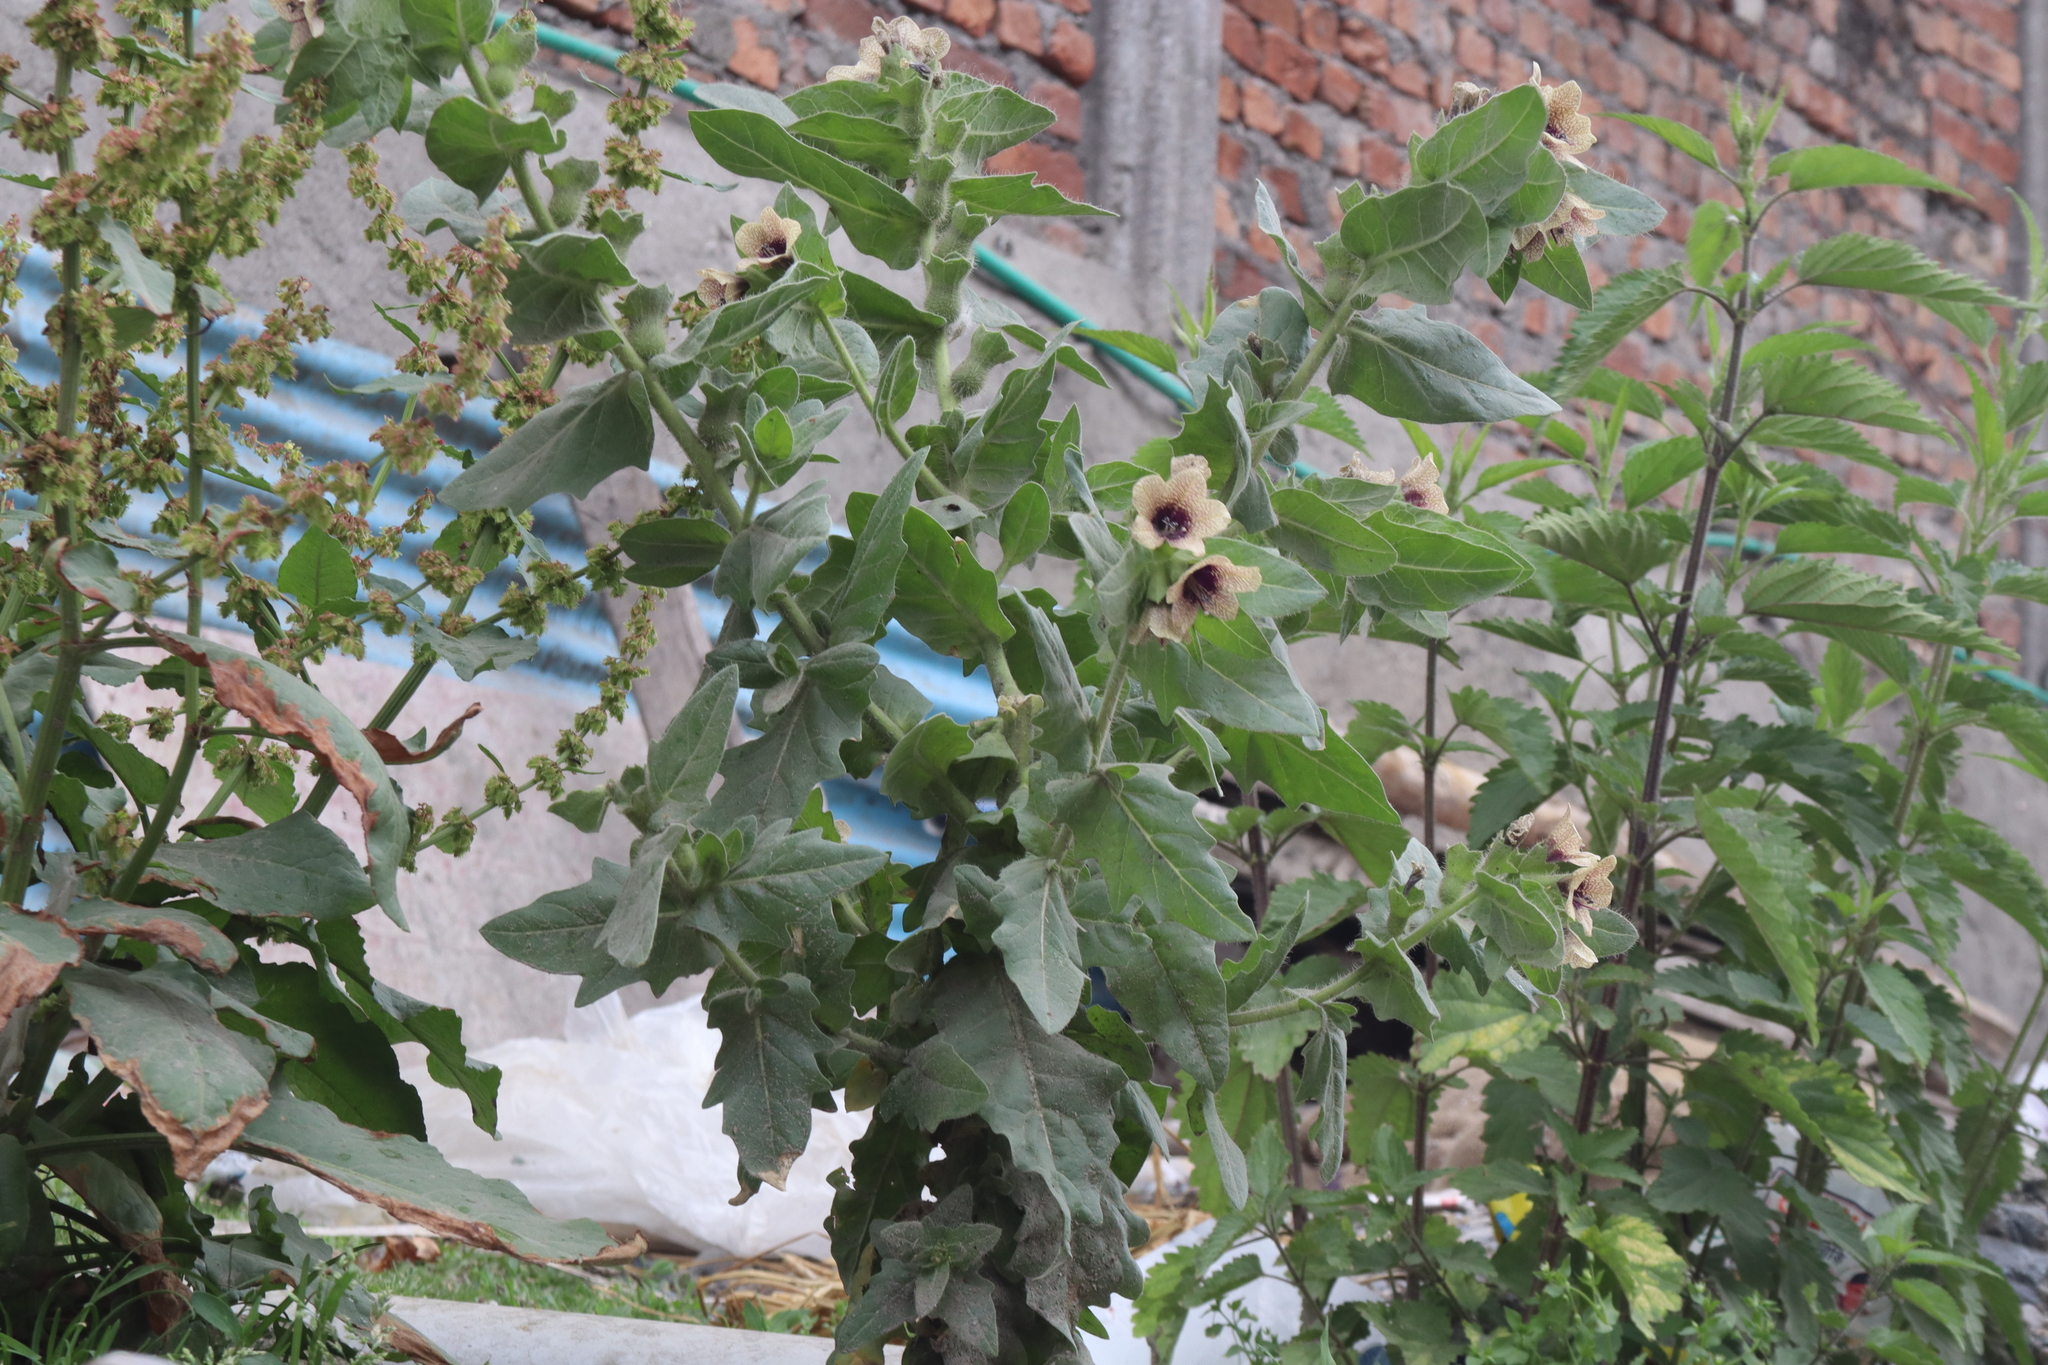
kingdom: Plantae
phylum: Tracheophyta
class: Magnoliopsida
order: Solanales
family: Solanaceae
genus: Hyoscyamus
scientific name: Hyoscyamus niger
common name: Henbane
